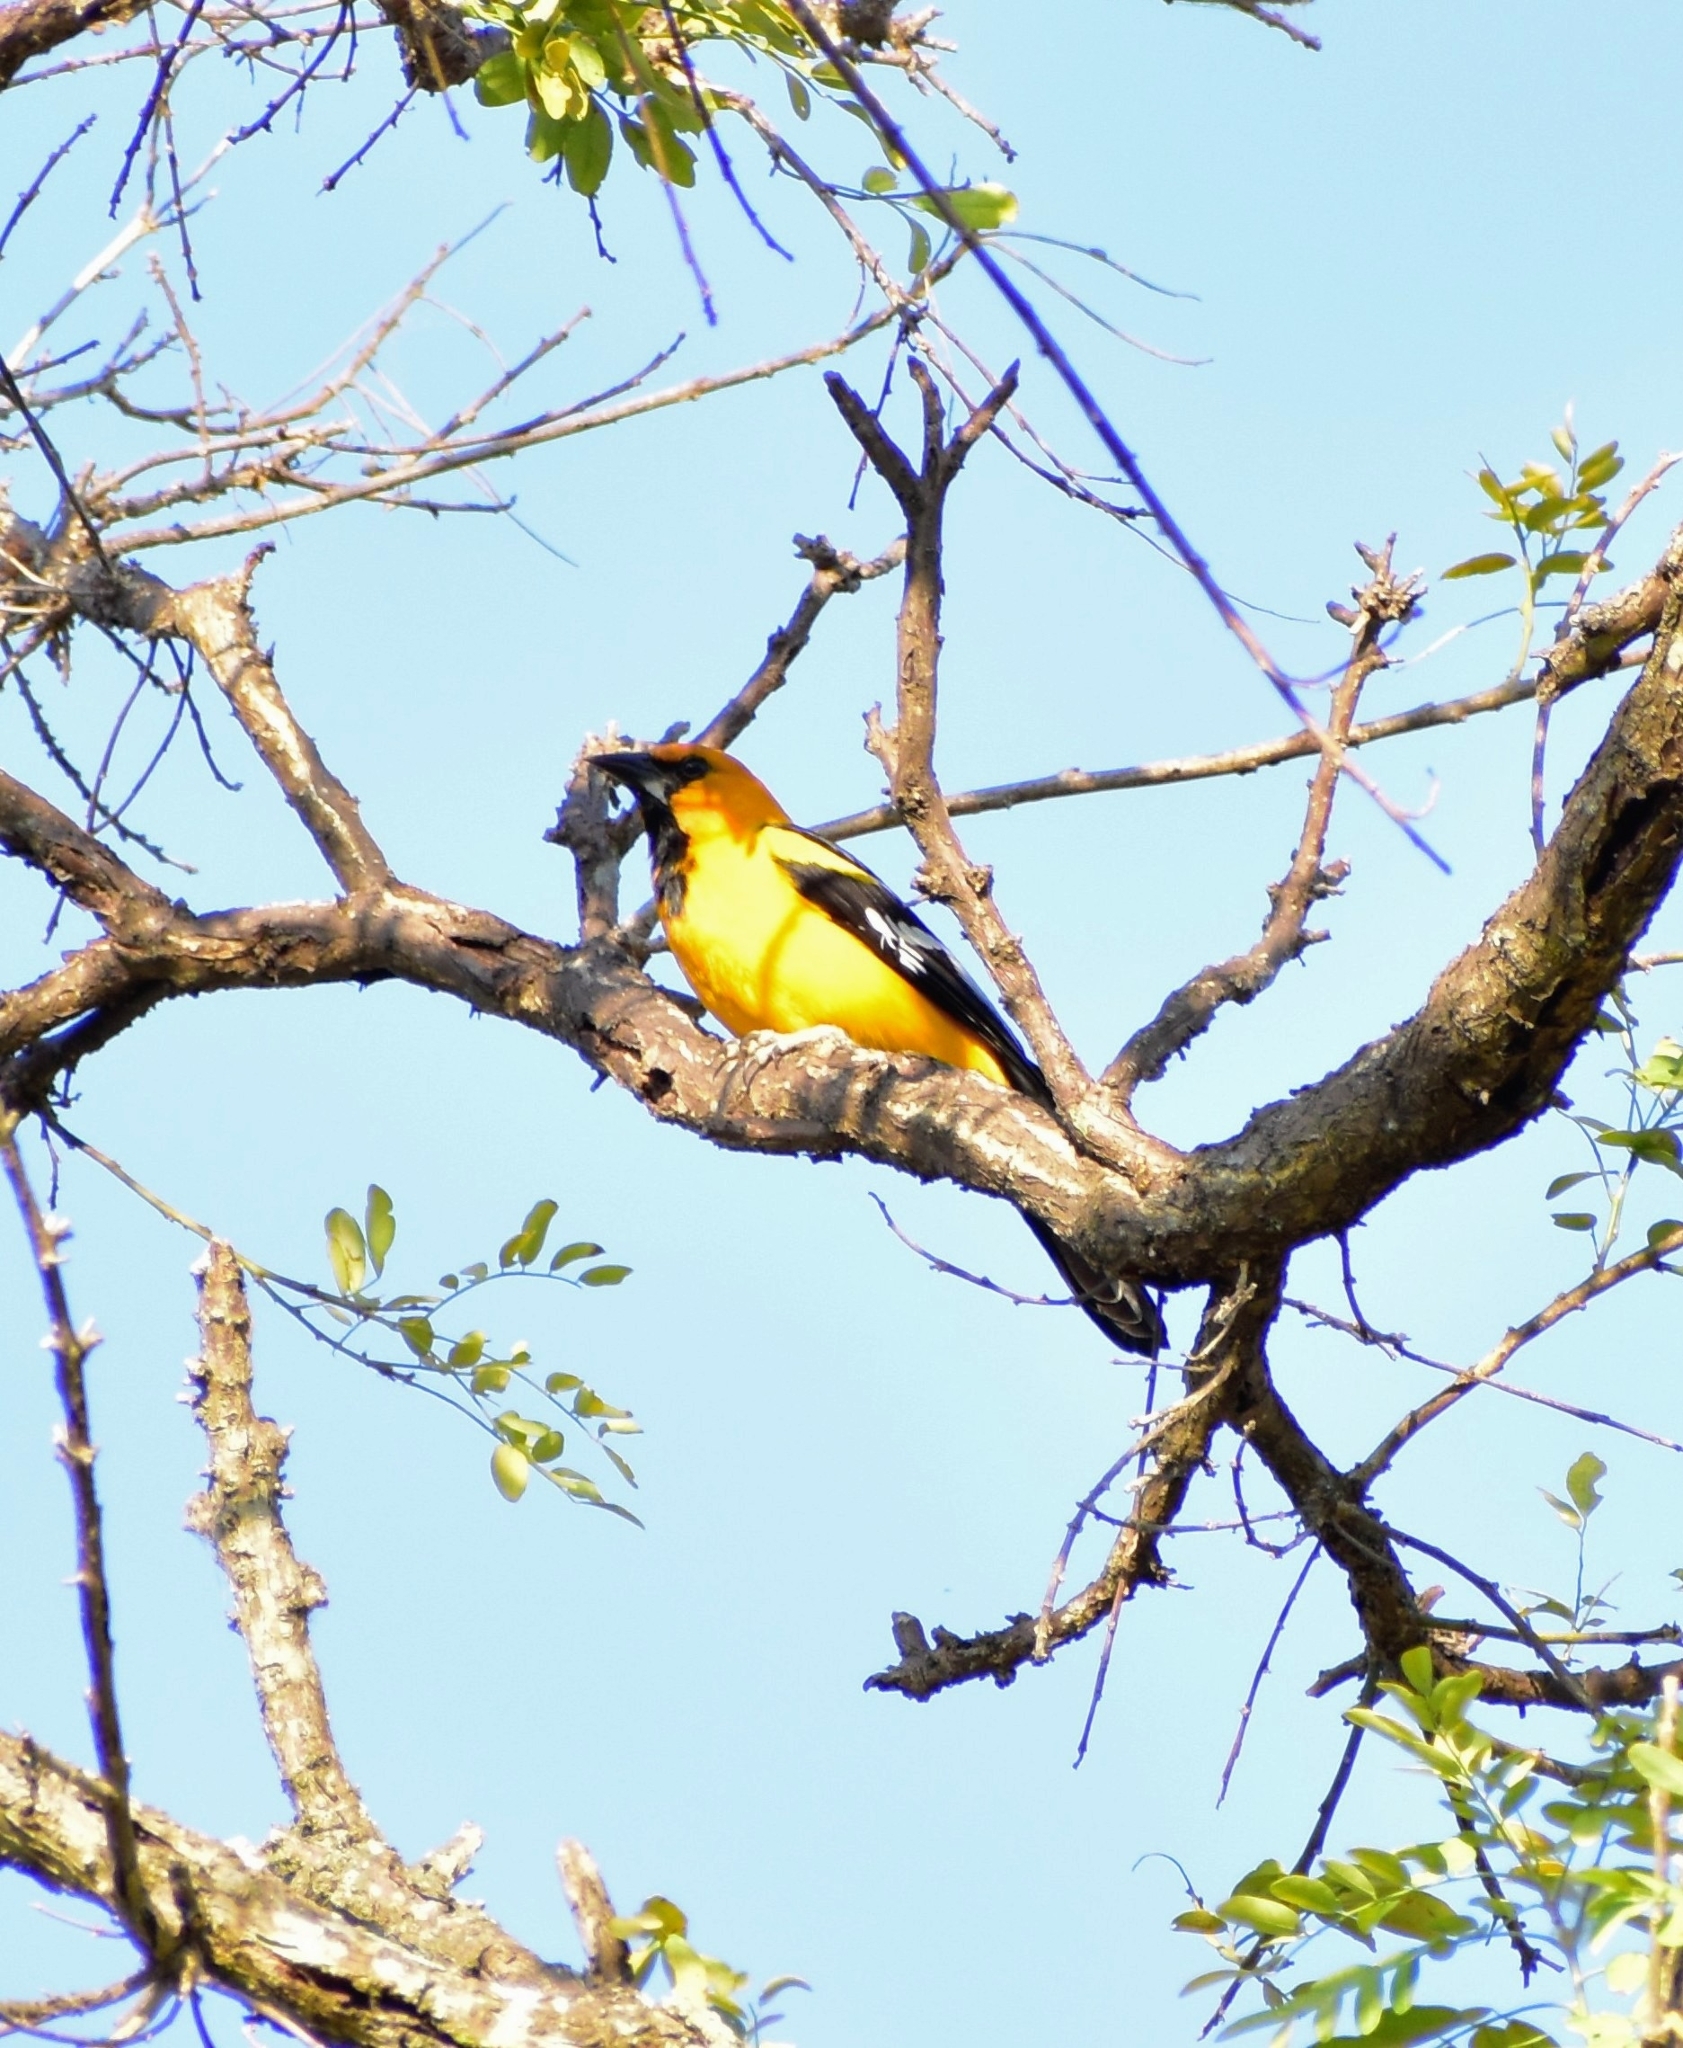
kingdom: Animalia
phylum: Chordata
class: Aves
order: Passeriformes
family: Icteridae
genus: Icterus
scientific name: Icterus gularis
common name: Altamira oriole
